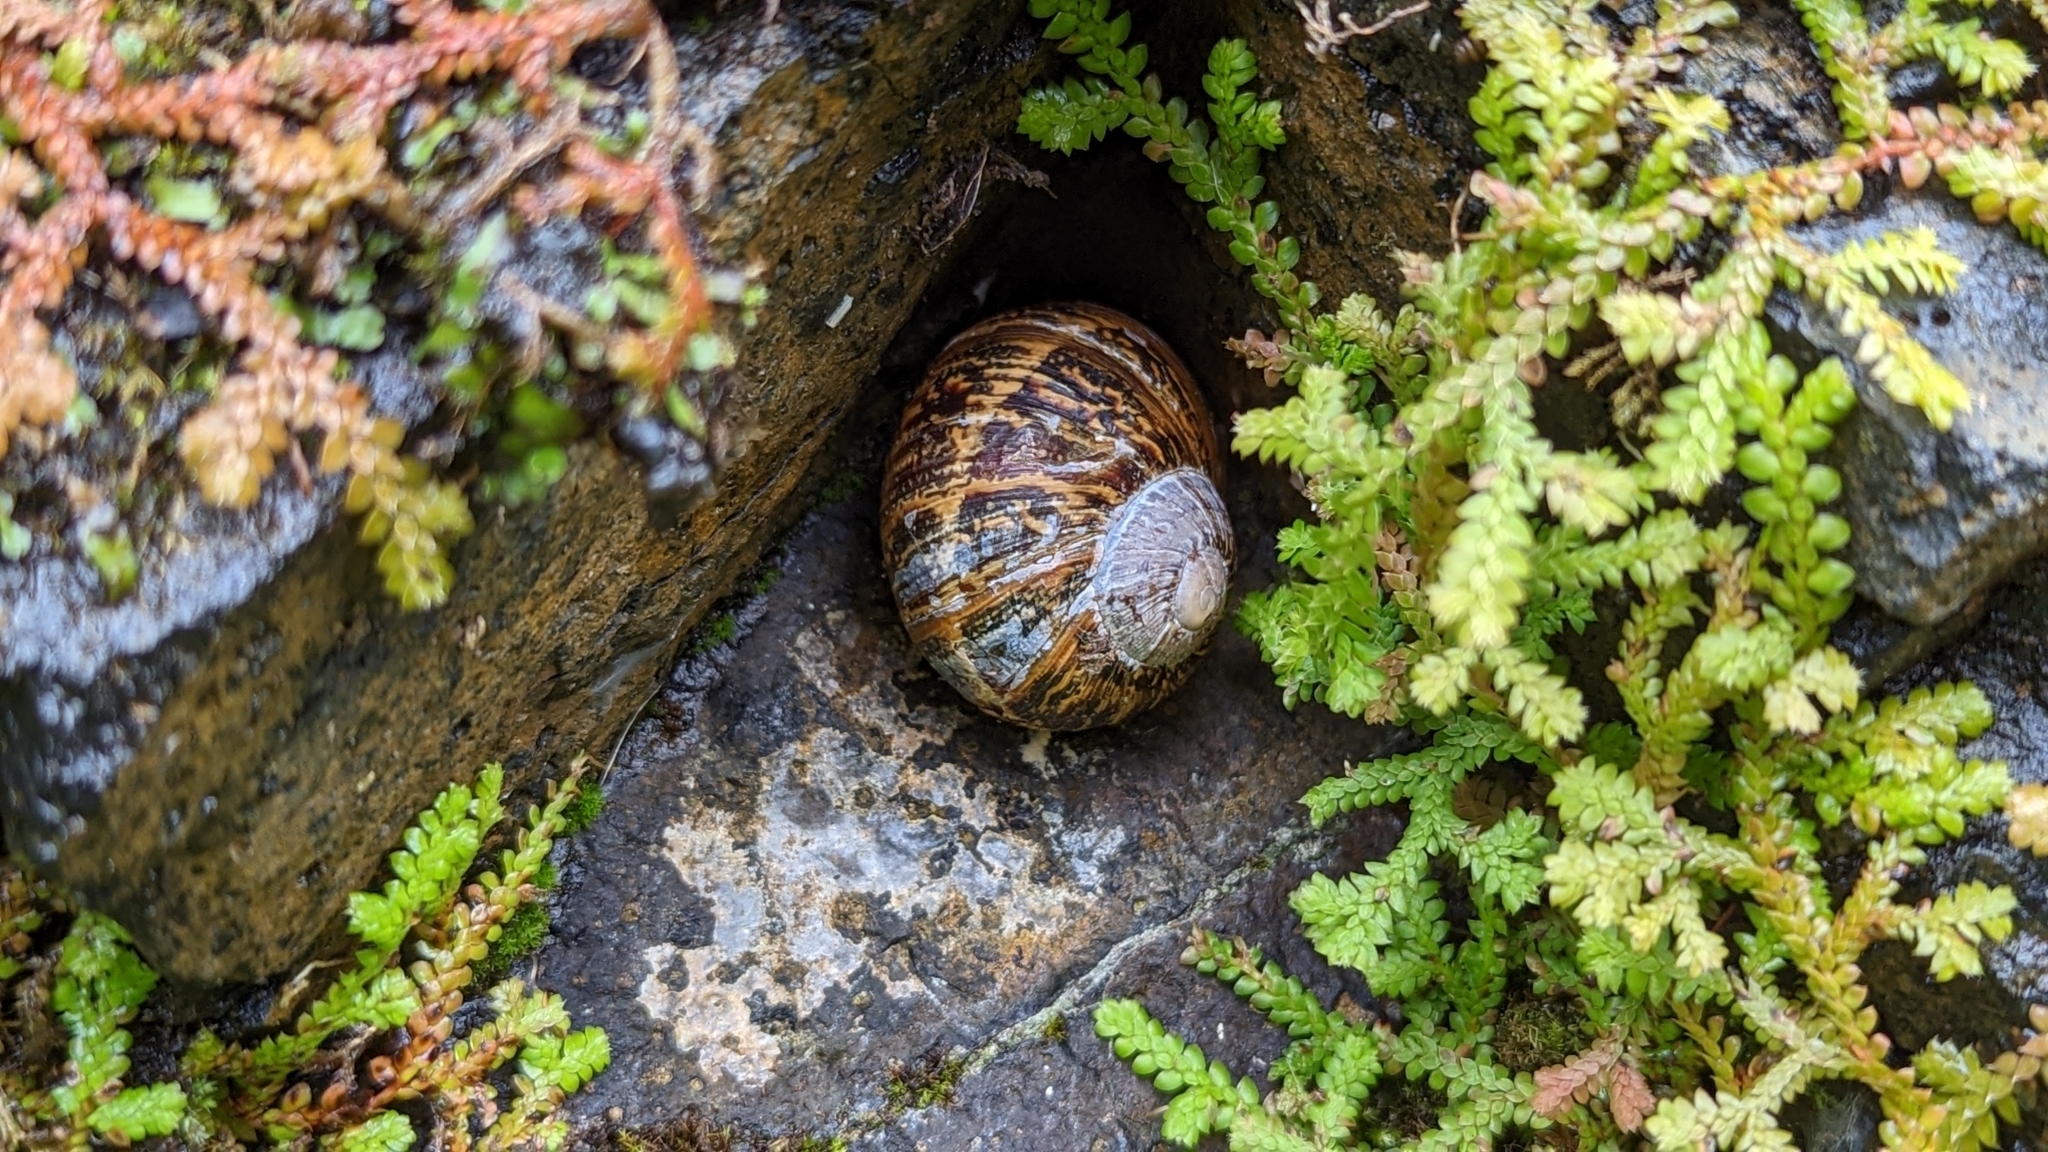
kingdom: Animalia
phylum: Mollusca
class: Gastropoda
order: Stylommatophora
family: Helicidae
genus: Cornu
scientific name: Cornu aspersum
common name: Brown garden snail
